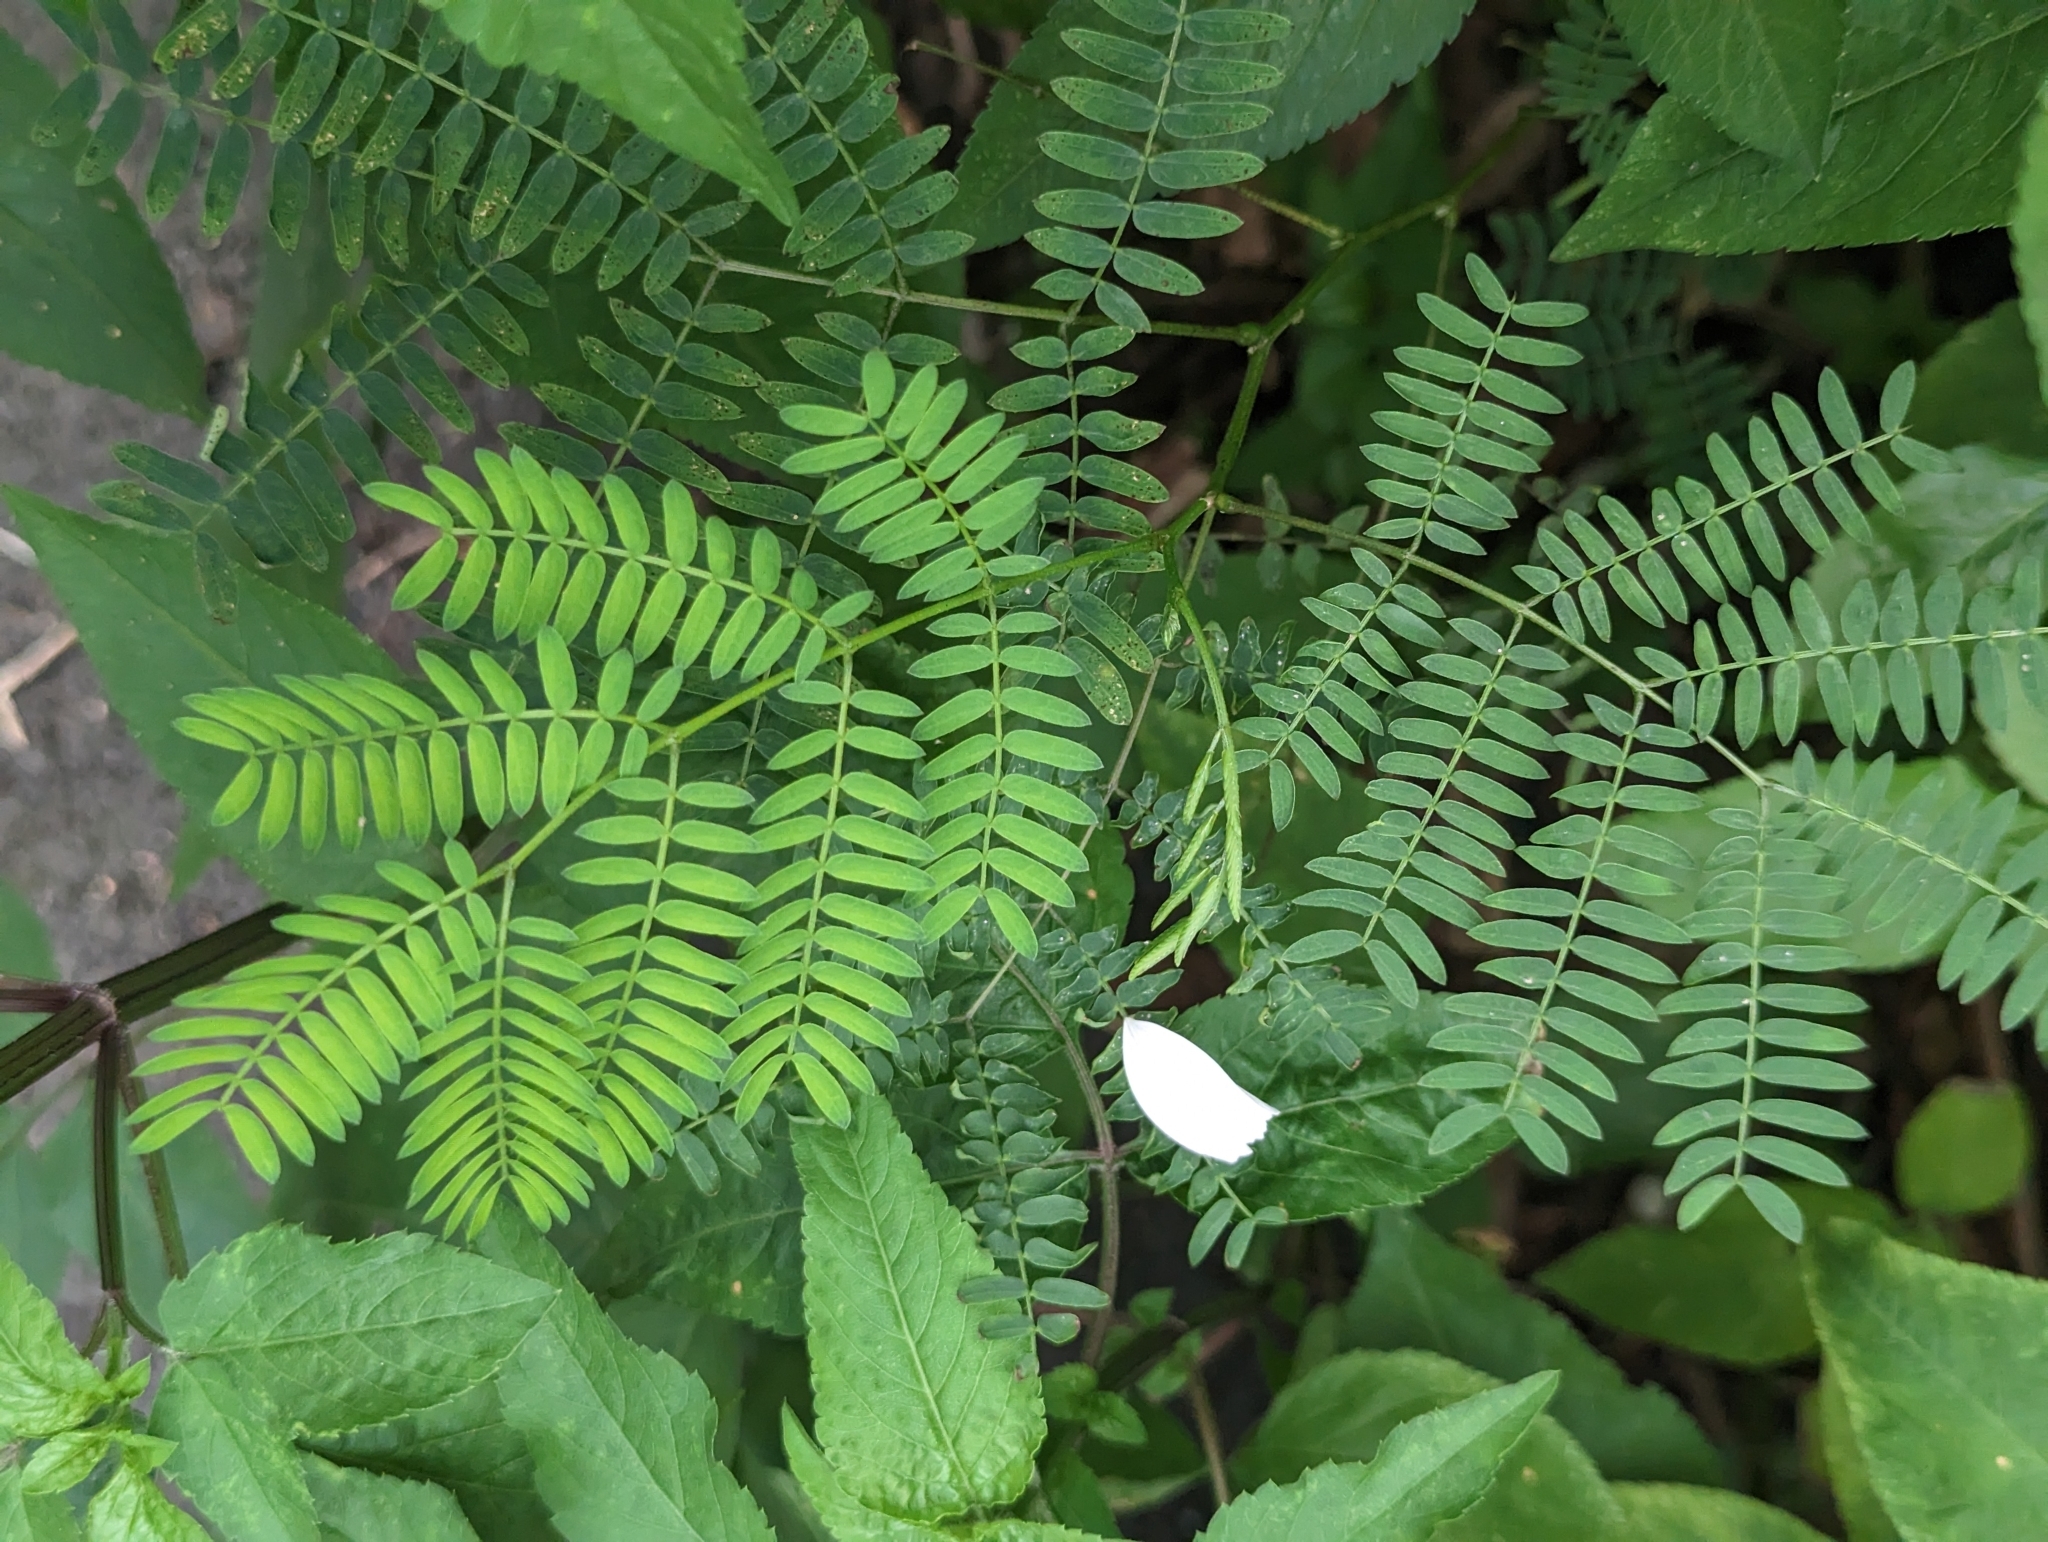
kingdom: Plantae
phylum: Tracheophyta
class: Magnoliopsida
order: Fabales
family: Fabaceae
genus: Leucaena
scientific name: Leucaena leucocephala
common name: White leadtree
